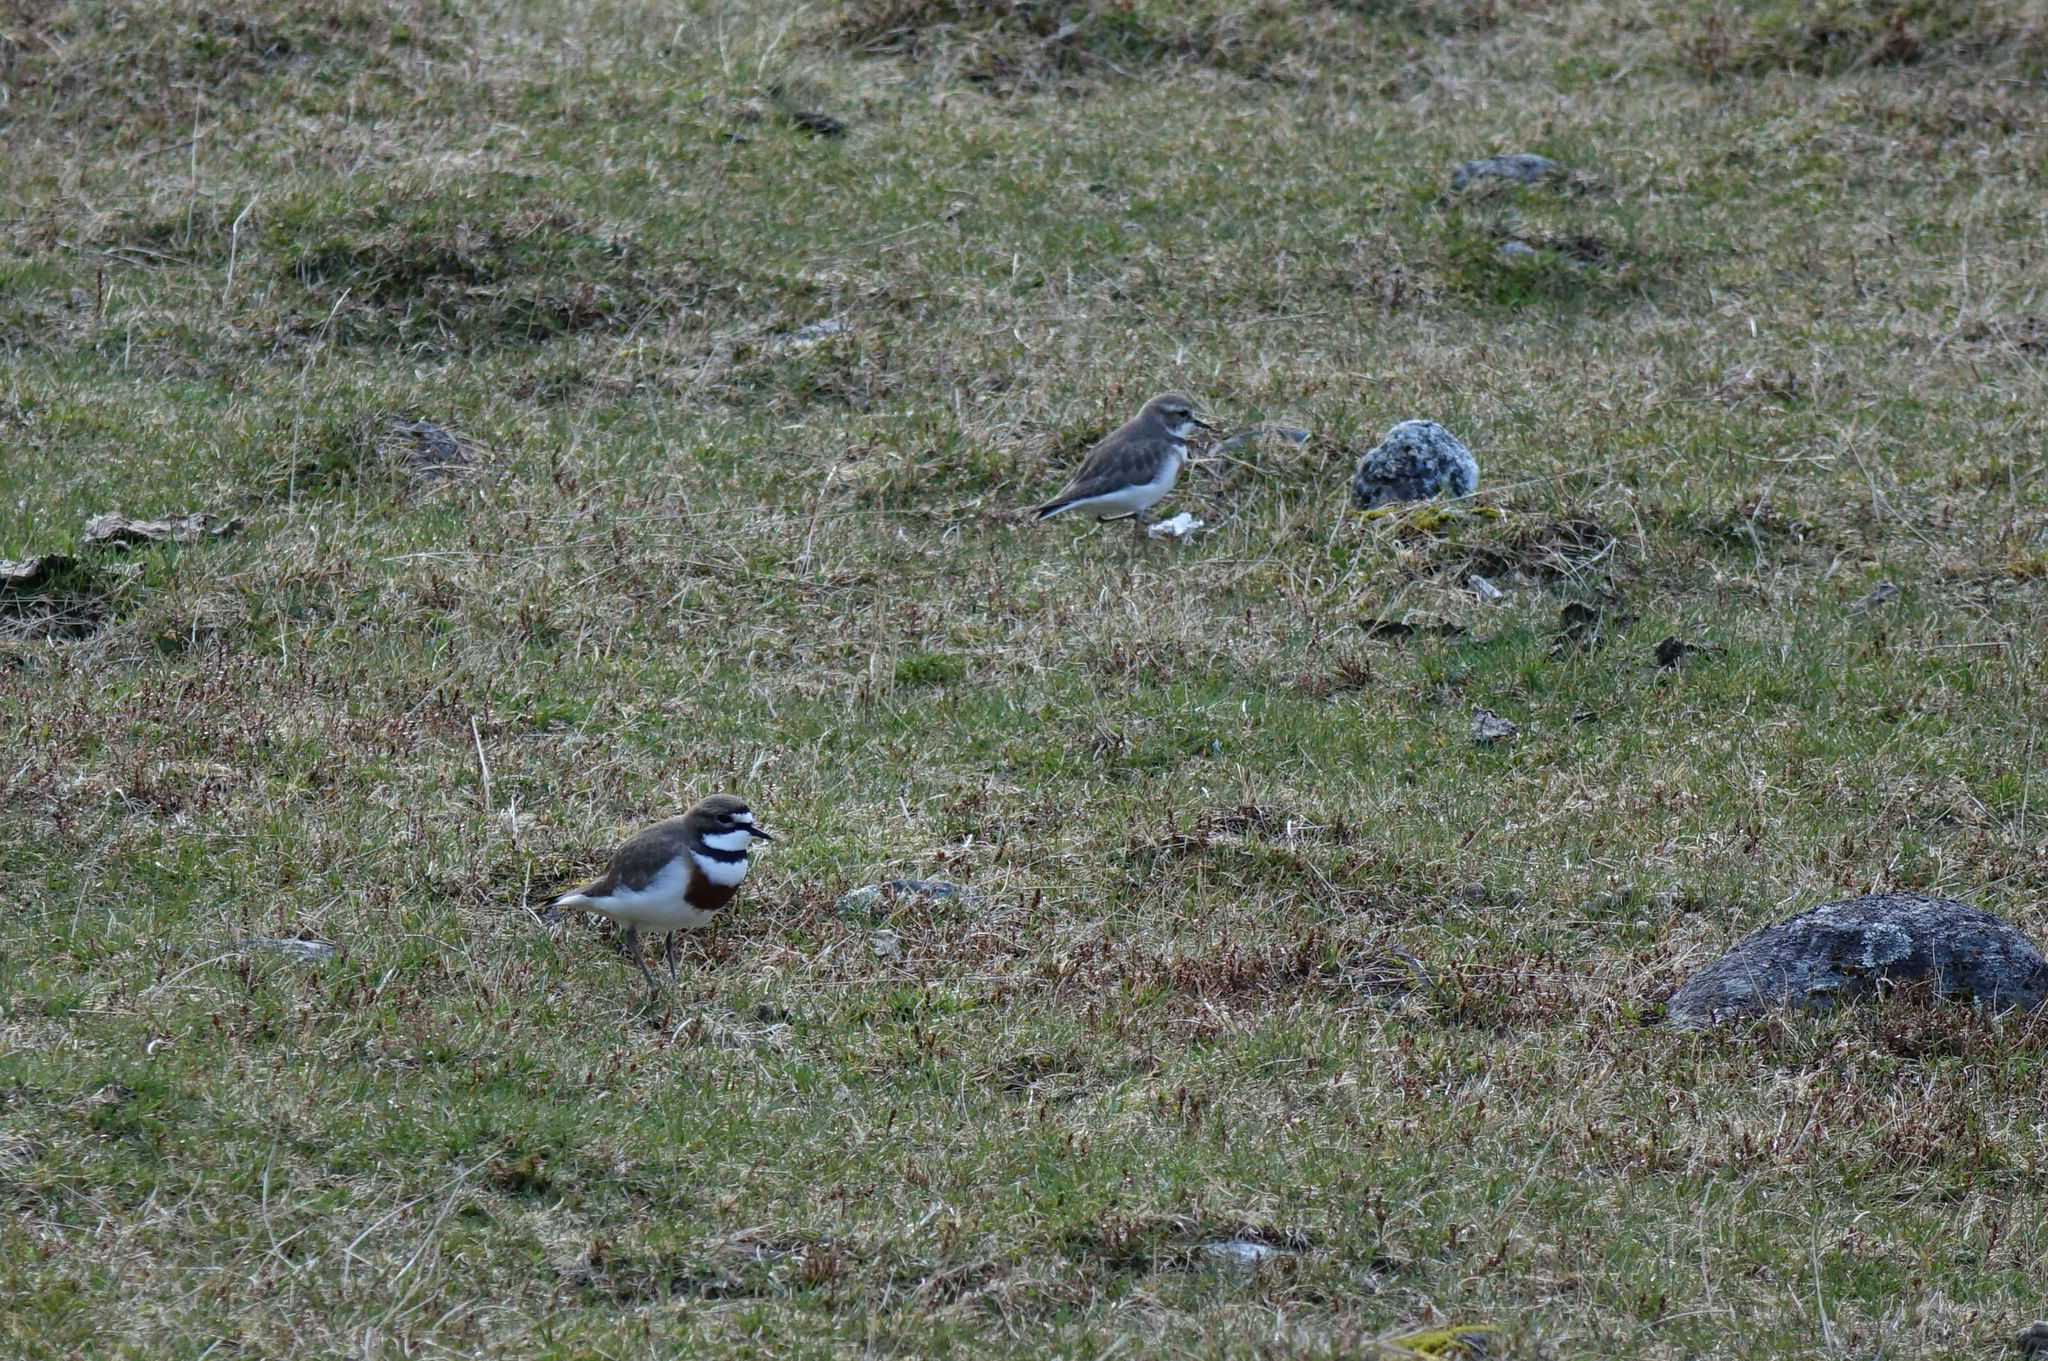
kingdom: Animalia
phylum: Chordata
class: Aves
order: Charadriiformes
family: Charadriidae
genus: Anarhynchus
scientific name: Anarhynchus
